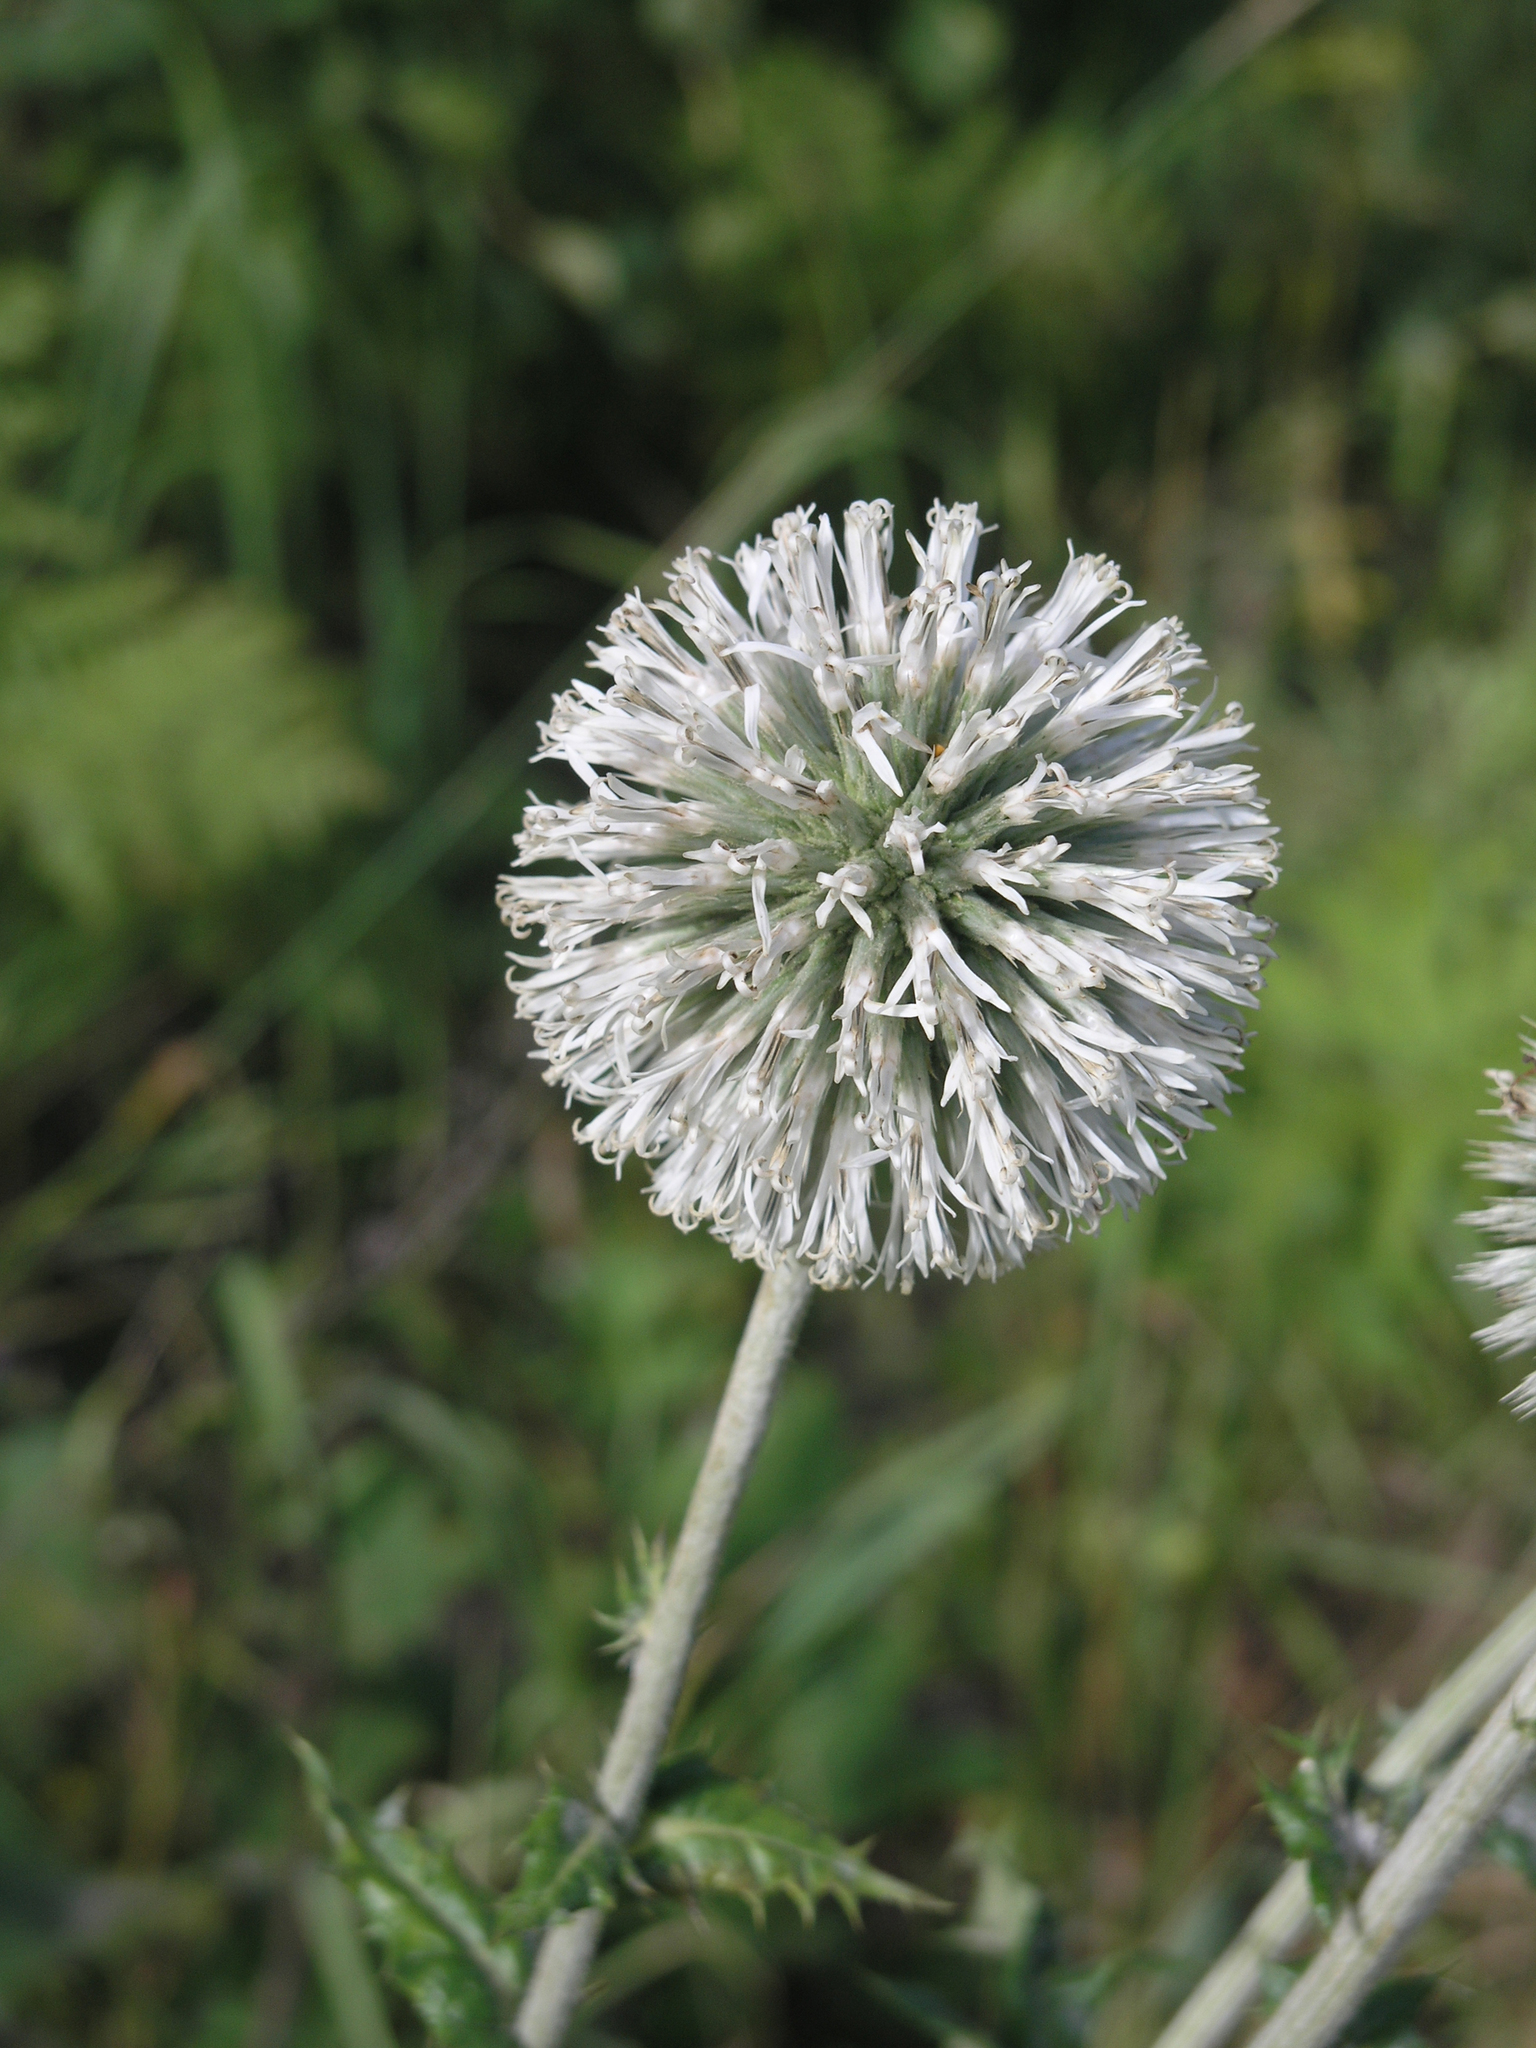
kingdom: Plantae
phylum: Tracheophyta
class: Magnoliopsida
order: Asterales
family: Asteraceae
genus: Echinops
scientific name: Echinops sphaerocephalus
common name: Glandular globe-thistle
